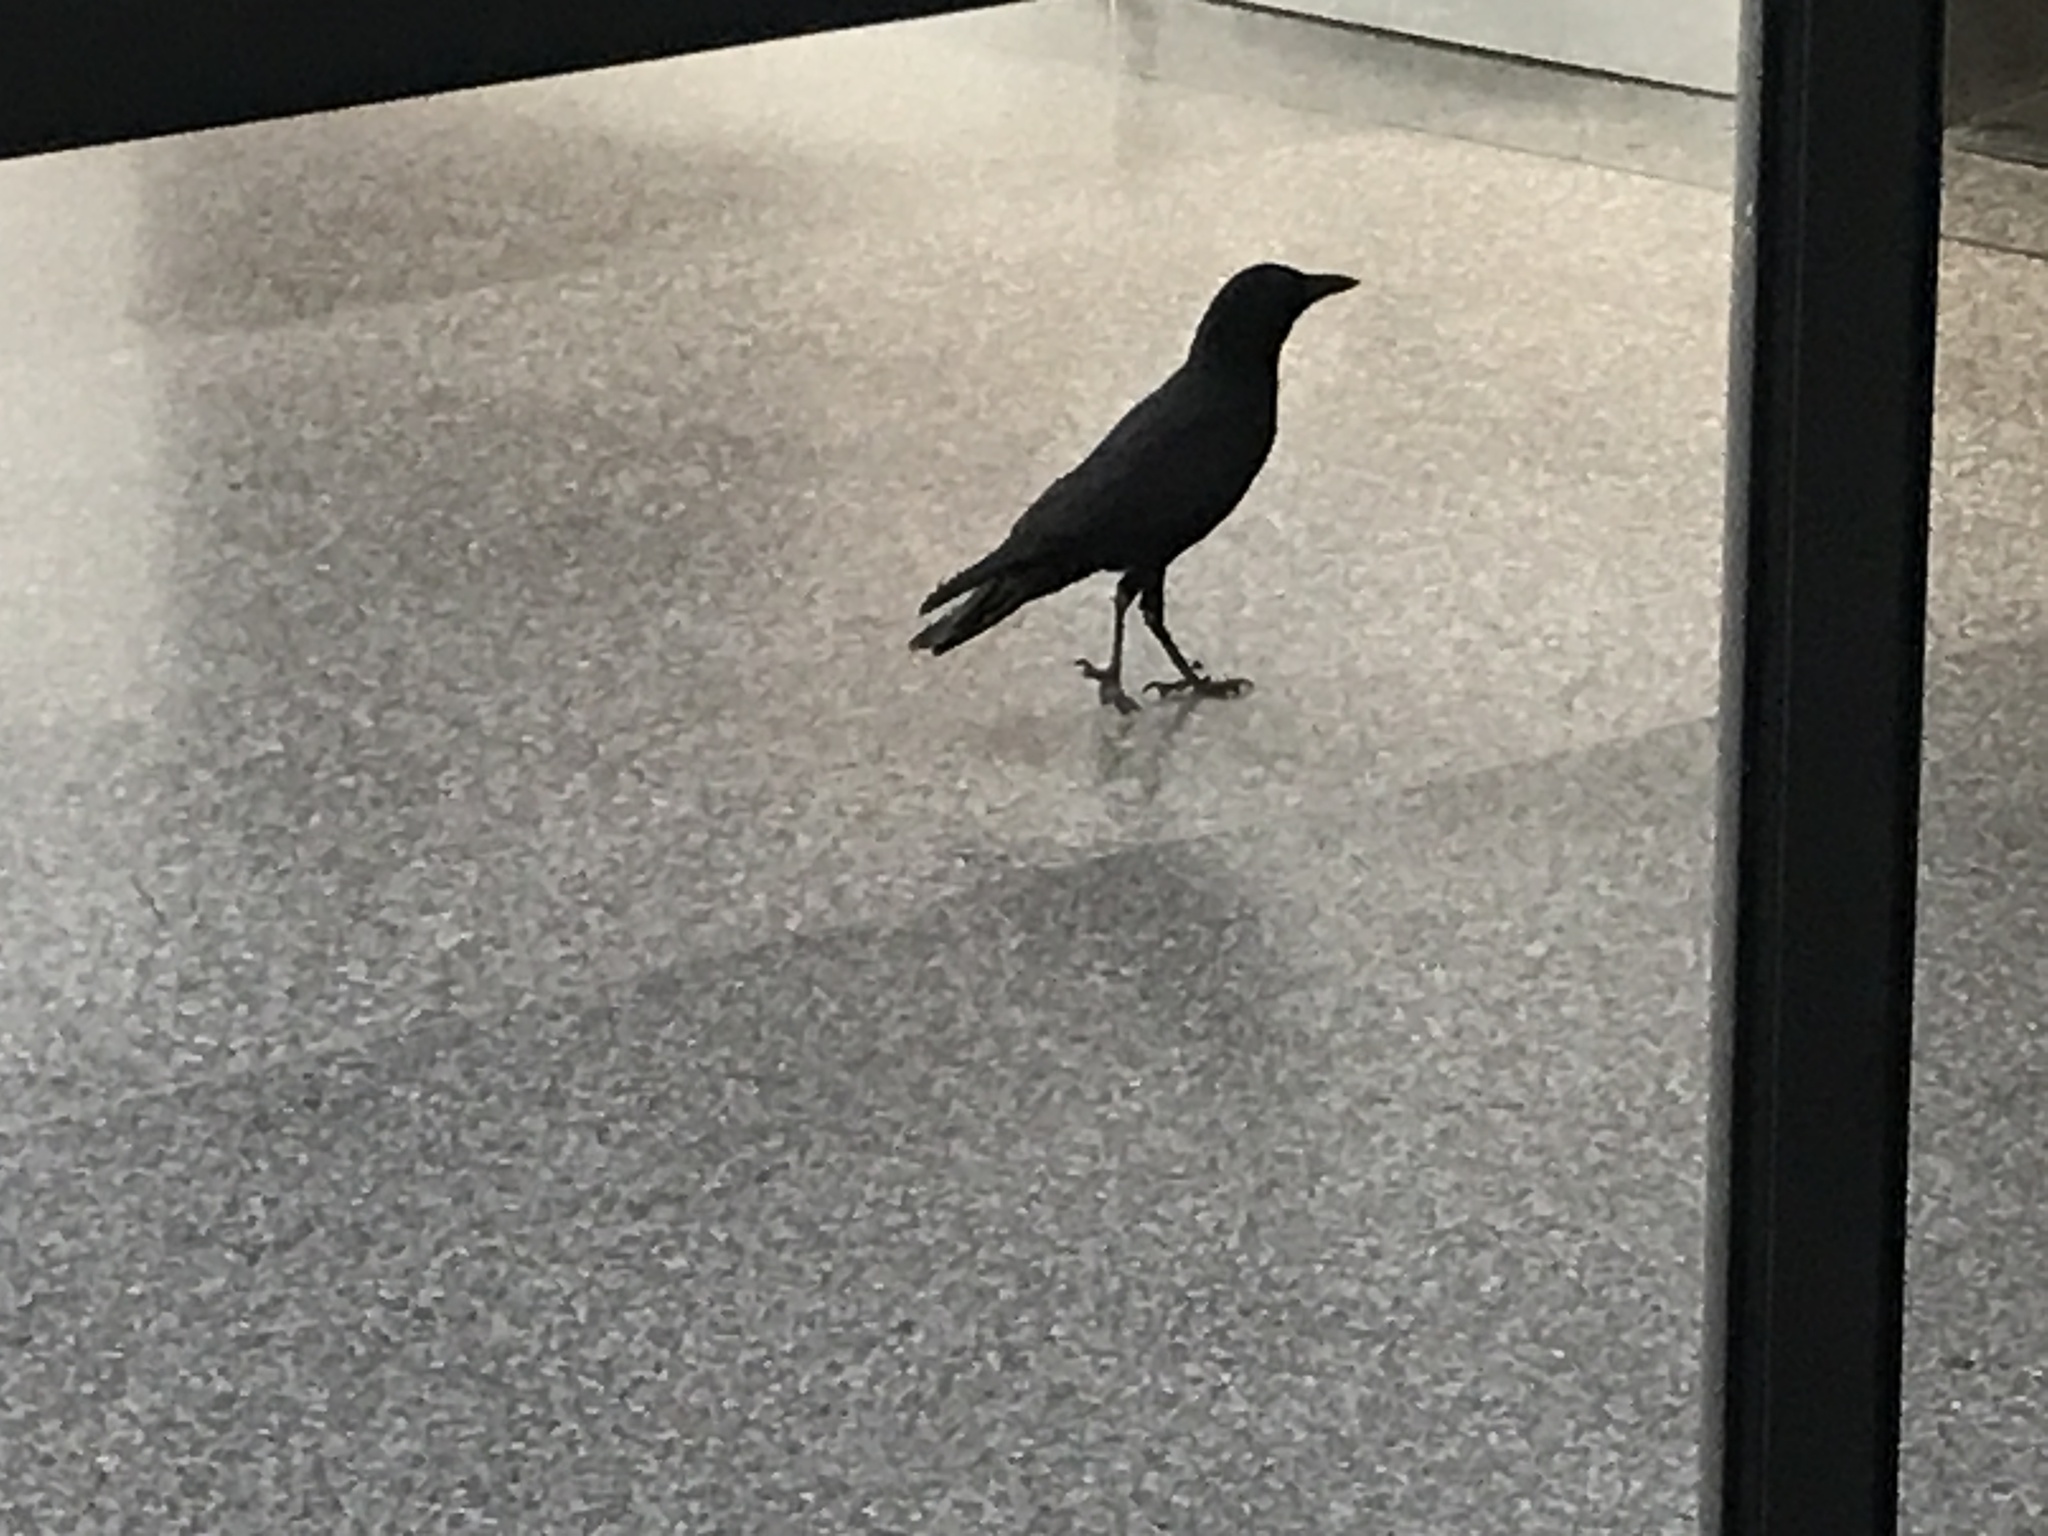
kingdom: Animalia
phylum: Chordata
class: Aves
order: Passeriformes
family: Corvidae
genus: Corvus
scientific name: Corvus brachyrhynchos
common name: American crow
